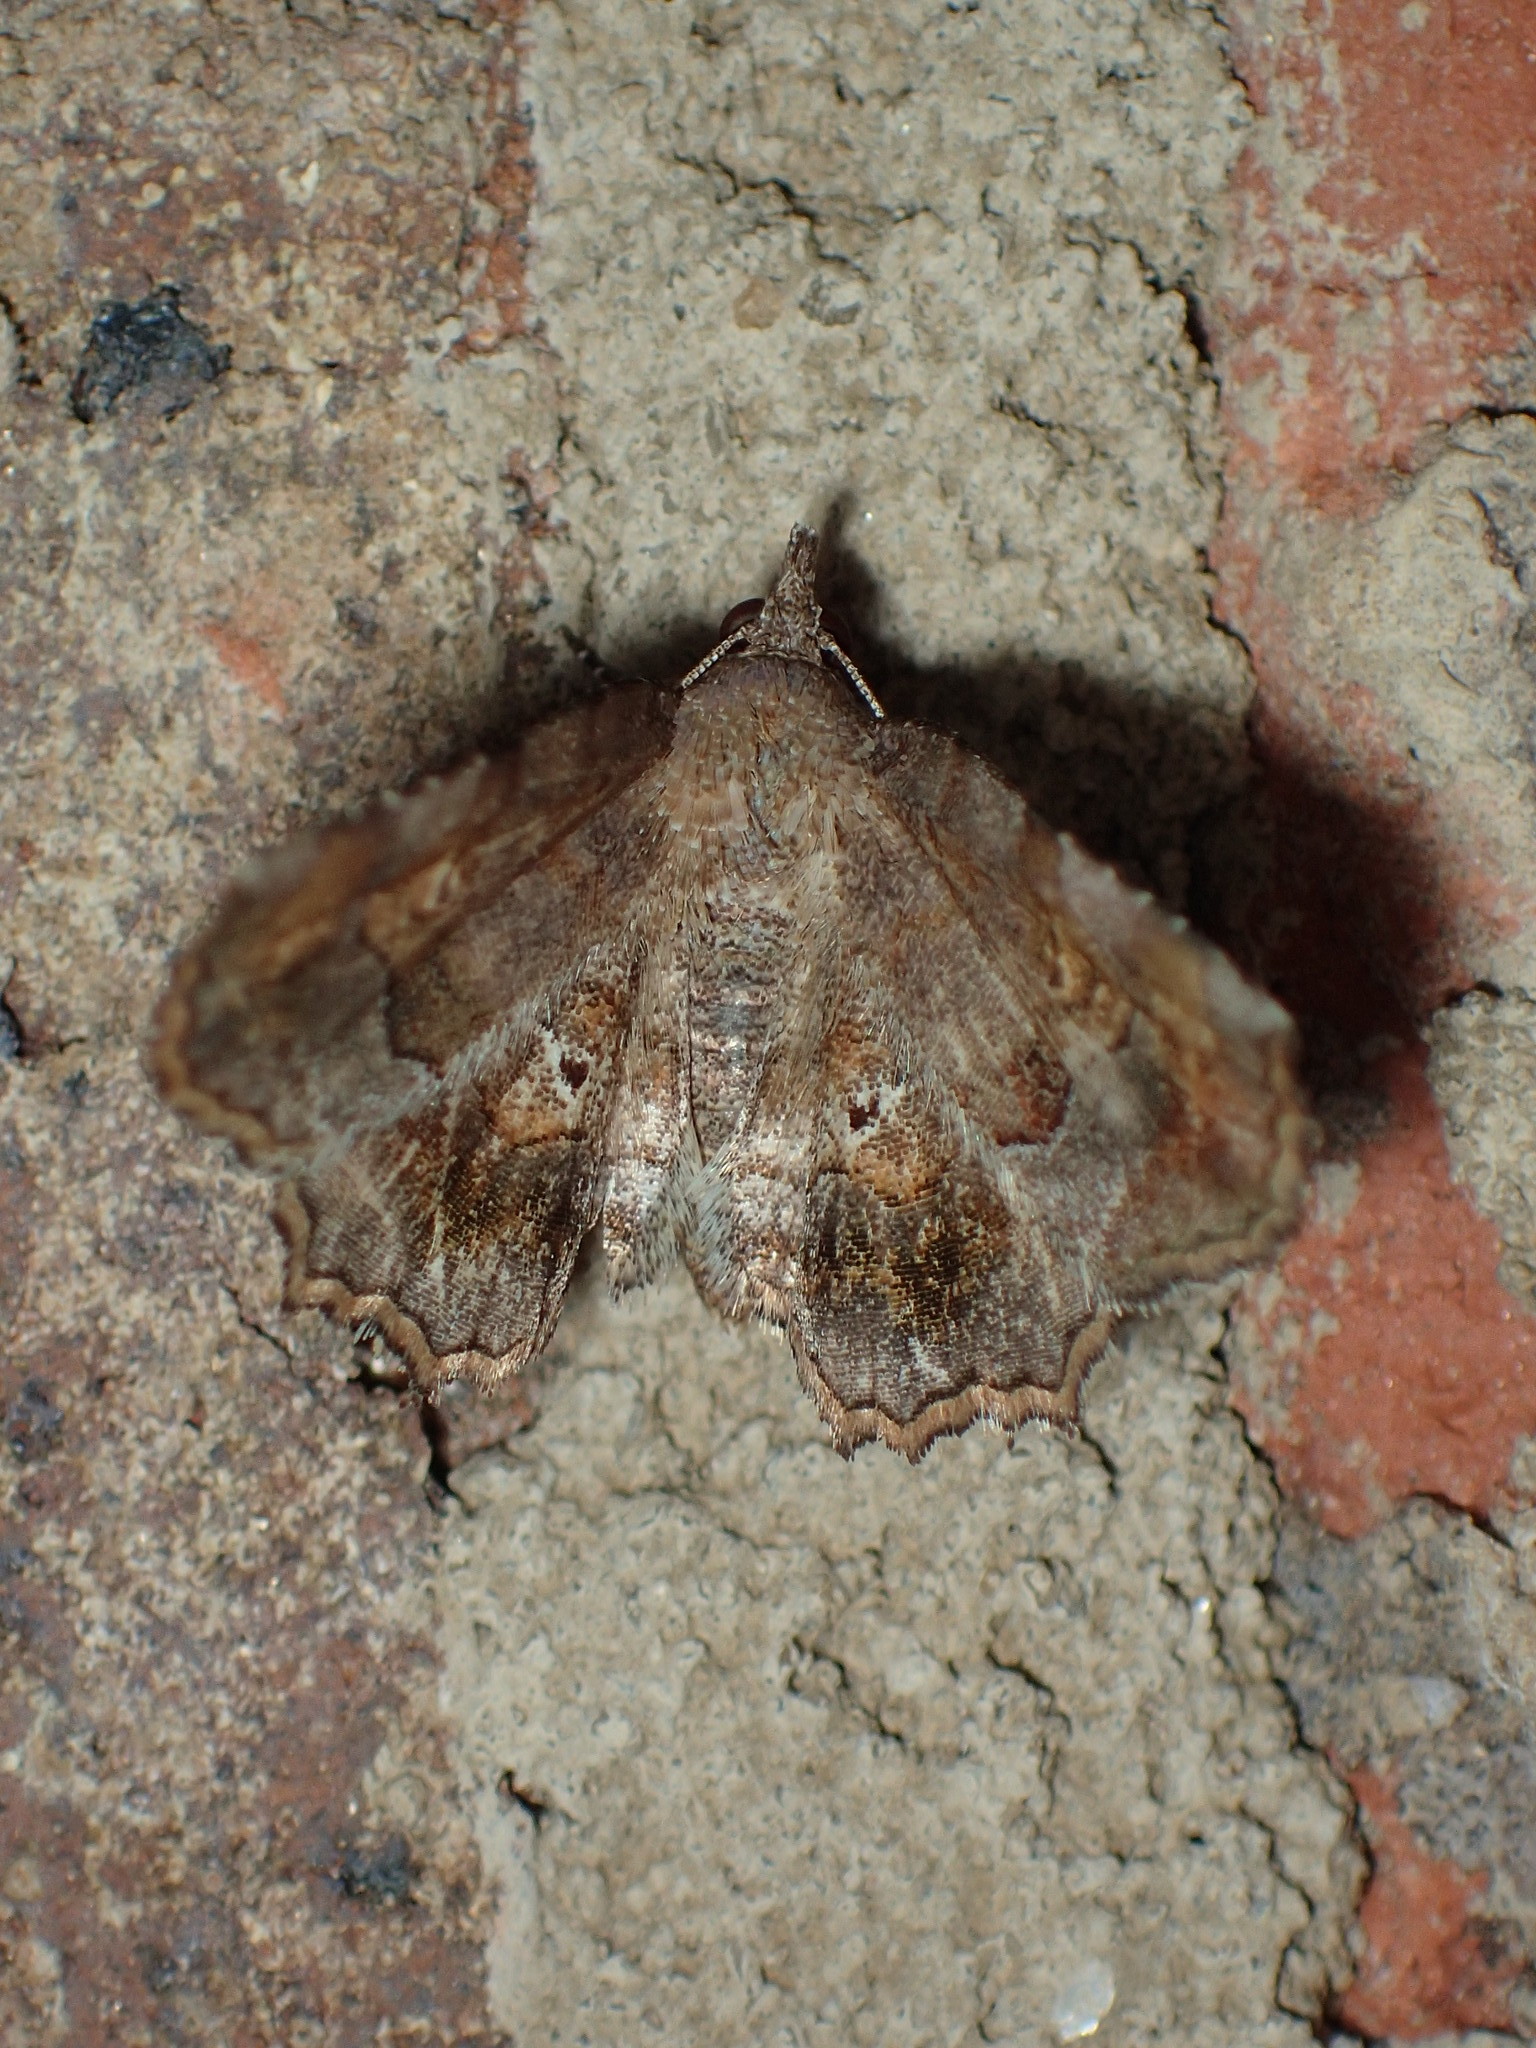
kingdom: Animalia
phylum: Arthropoda
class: Insecta
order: Lepidoptera
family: Erebidae
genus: Pangrapta
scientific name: Pangrapta decoralis
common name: Decorated owlet
